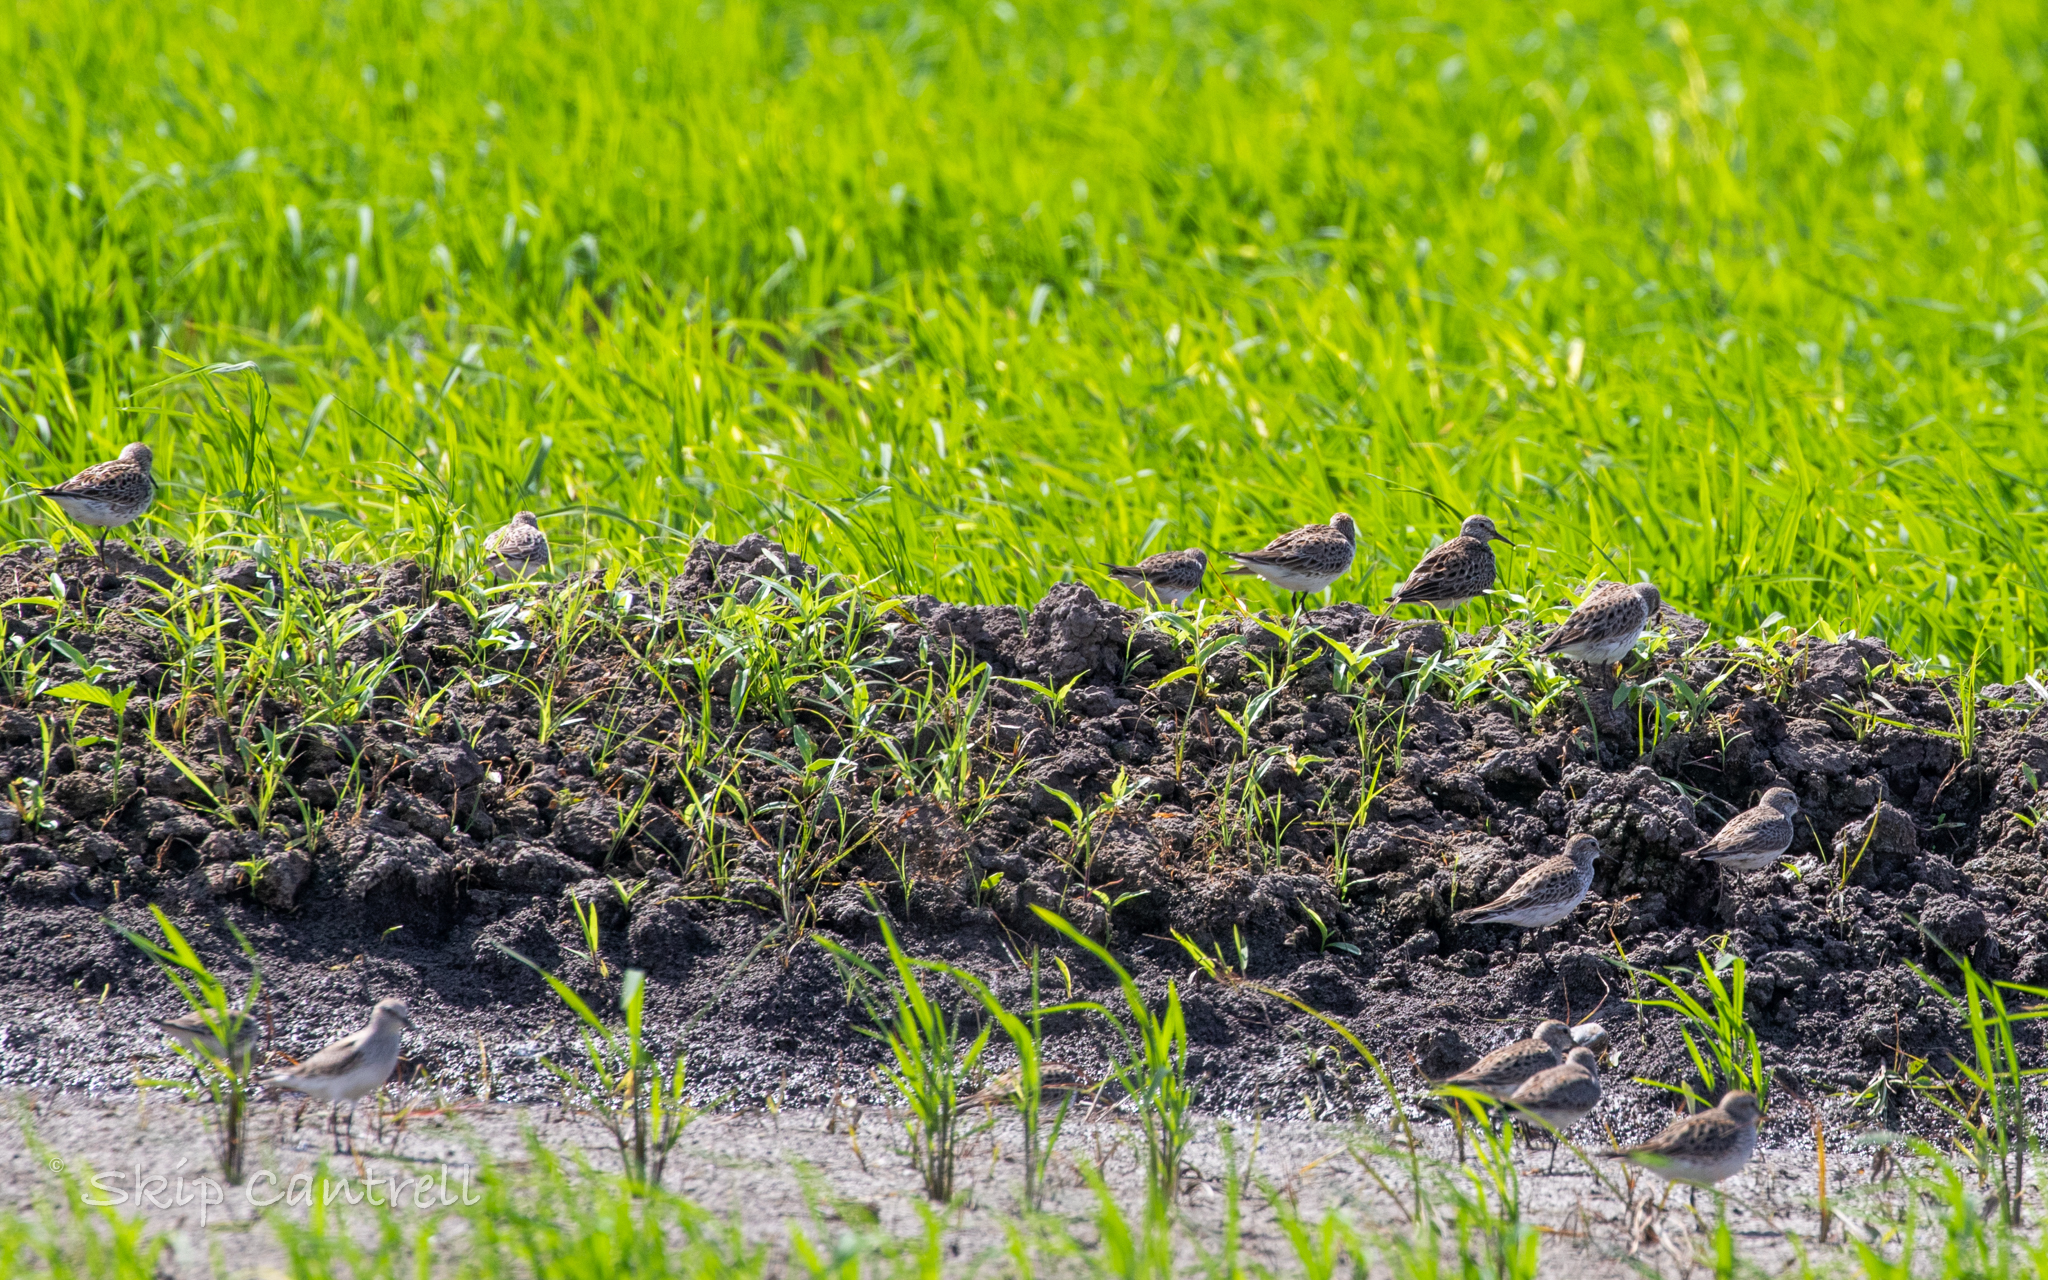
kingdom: Animalia
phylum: Chordata
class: Aves
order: Charadriiformes
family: Scolopacidae
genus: Calidris
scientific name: Calidris fuscicollis
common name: White-rumped sandpiper
